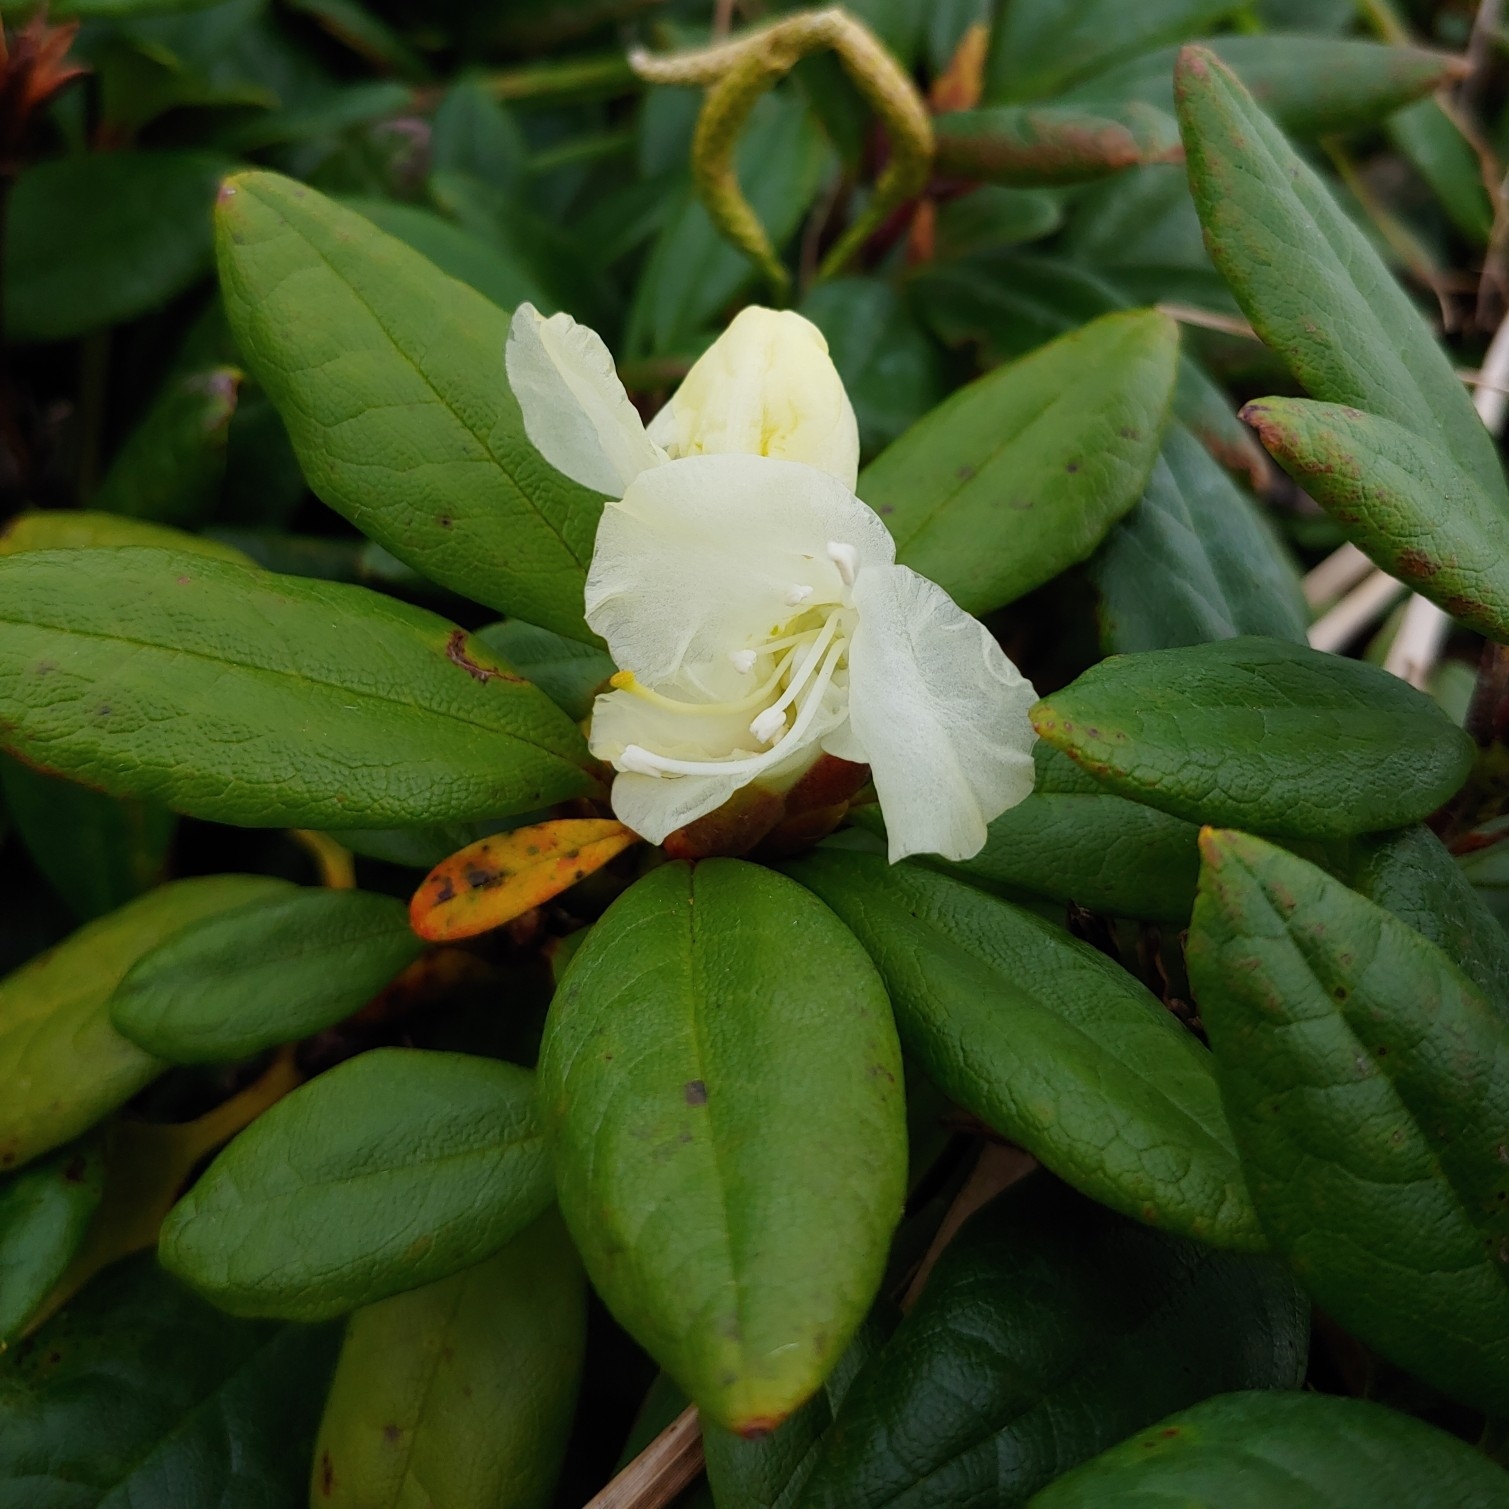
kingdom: Plantae
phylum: Tracheophyta
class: Magnoliopsida
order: Ericales
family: Ericaceae
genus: Rhododendron
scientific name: Rhododendron aureum
